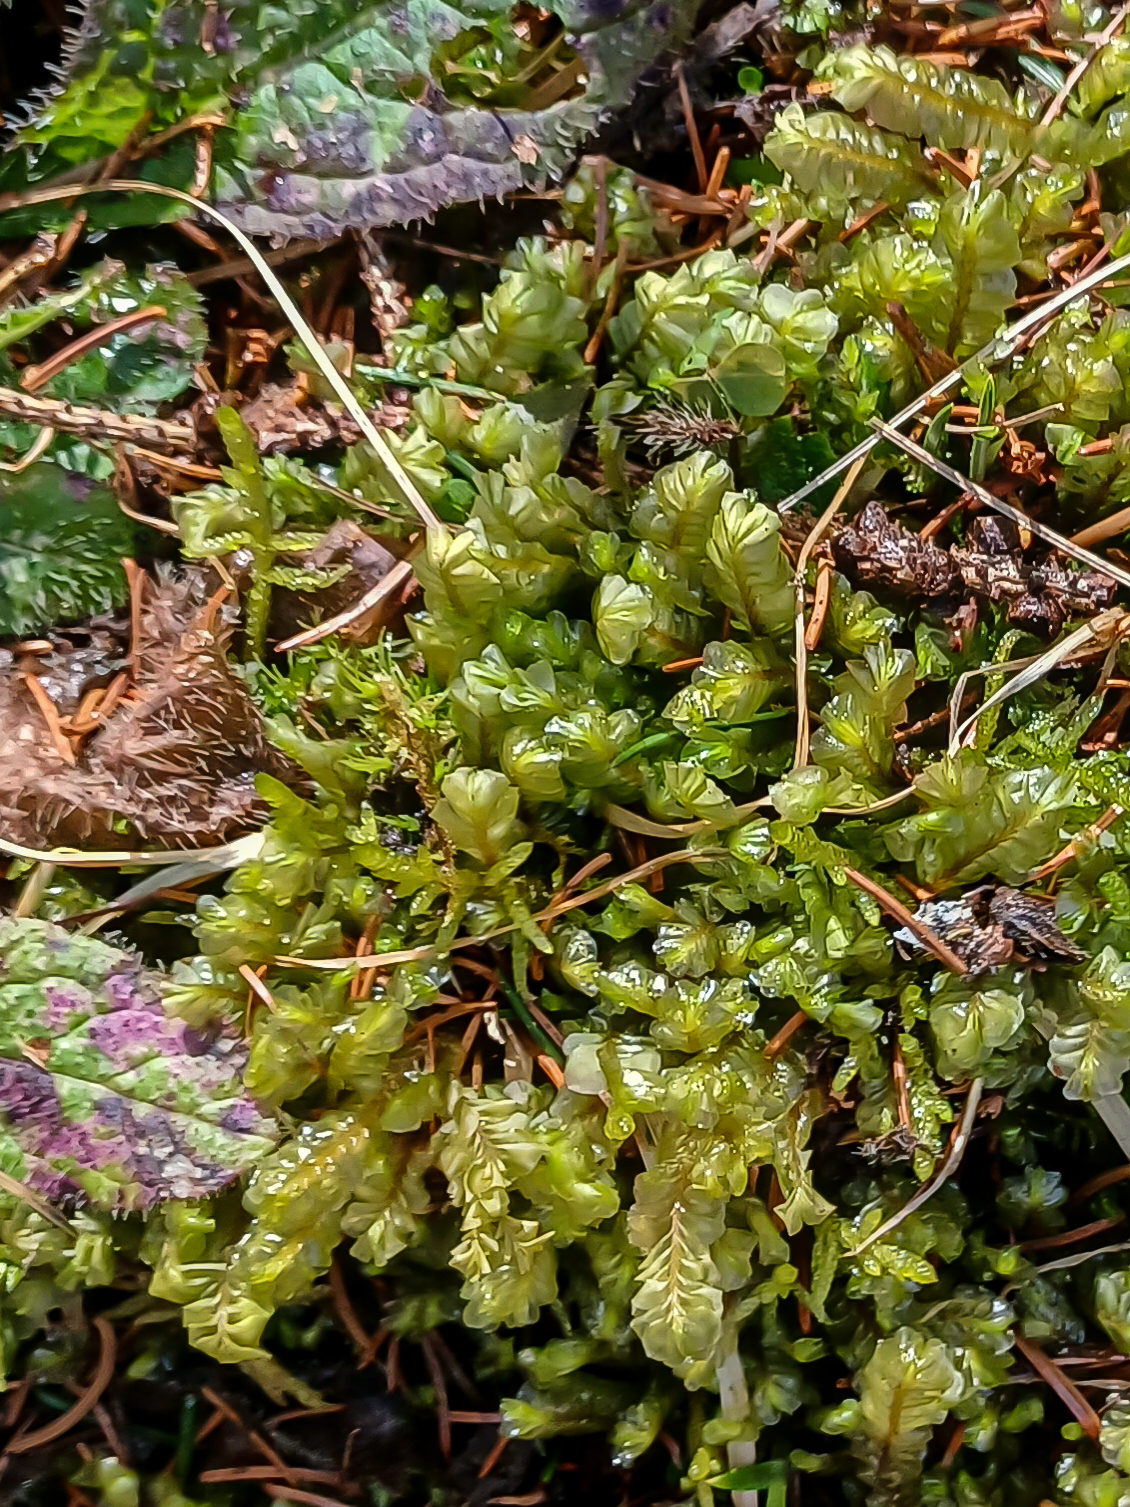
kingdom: Plantae
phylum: Marchantiophyta
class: Jungermanniopsida
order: Jungermanniales
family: Plagiochilaceae
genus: Plagiochila
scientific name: Plagiochila asplenioides
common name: Greater featherwort
